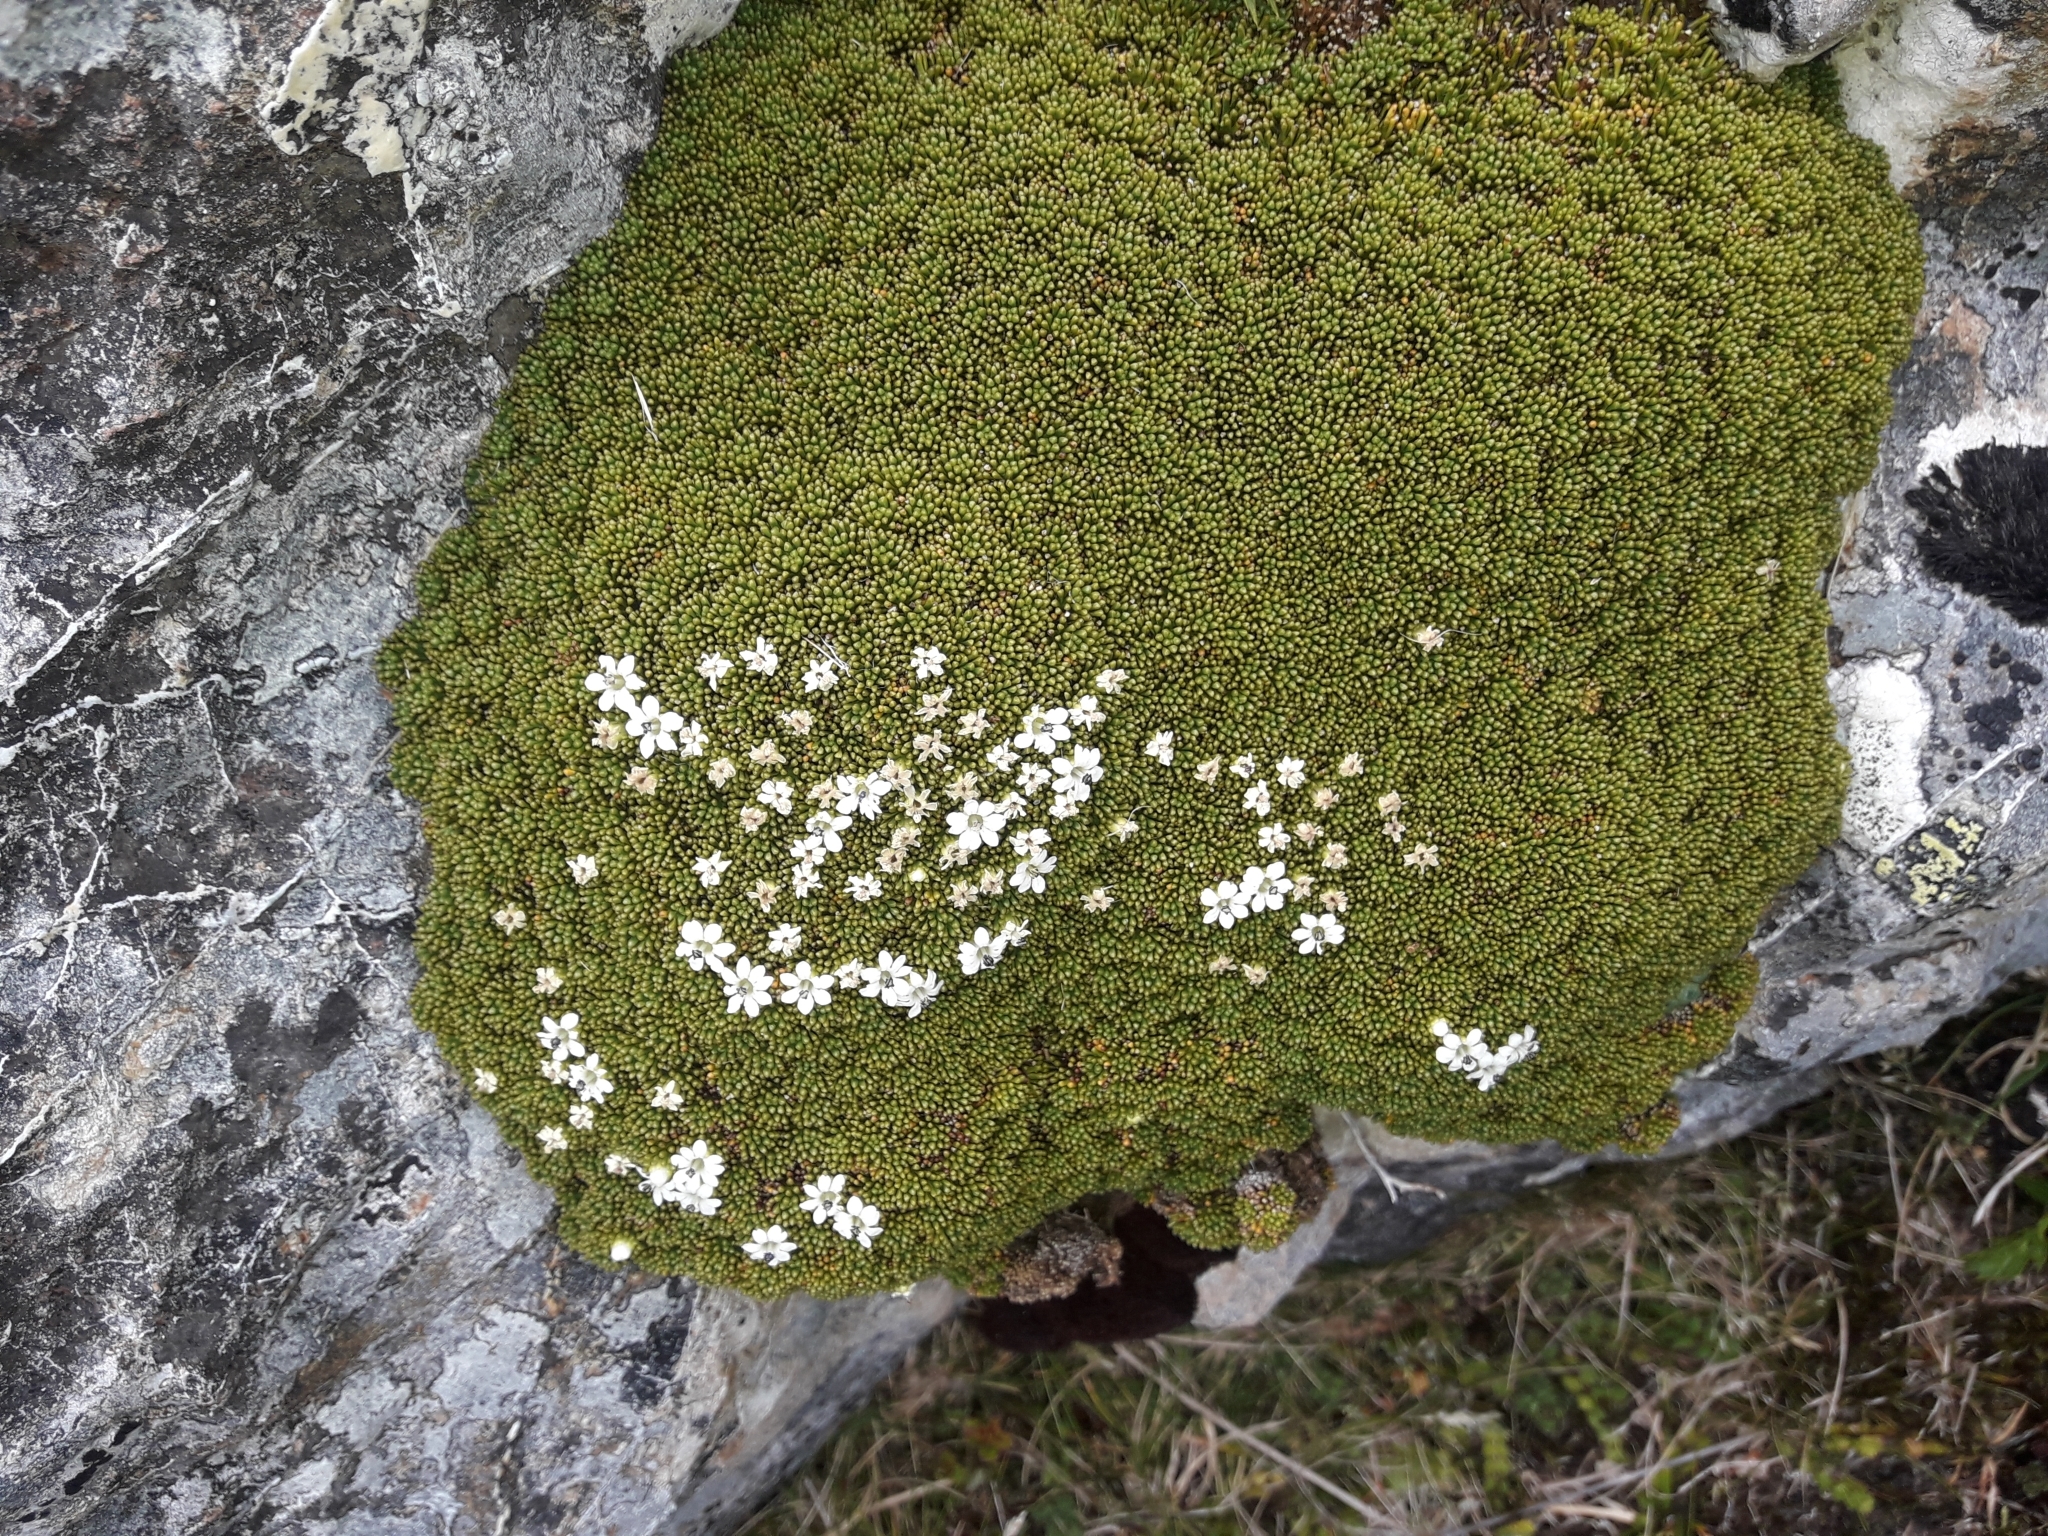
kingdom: Plantae
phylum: Tracheophyta
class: Magnoliopsida
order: Asterales
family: Stylidiaceae
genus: Phyllachne
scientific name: Phyllachne colensoi
